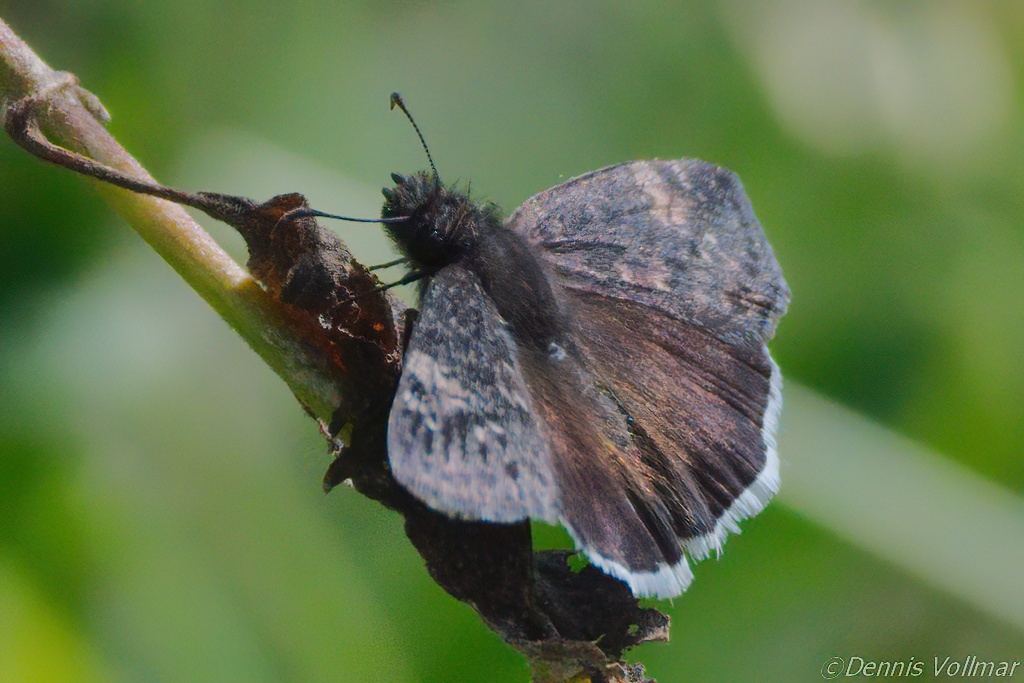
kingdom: Animalia
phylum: Arthropoda
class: Insecta
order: Lepidoptera
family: Hesperiidae
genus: Erynnis
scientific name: Erynnis funeralis
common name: Funereal duskywing
